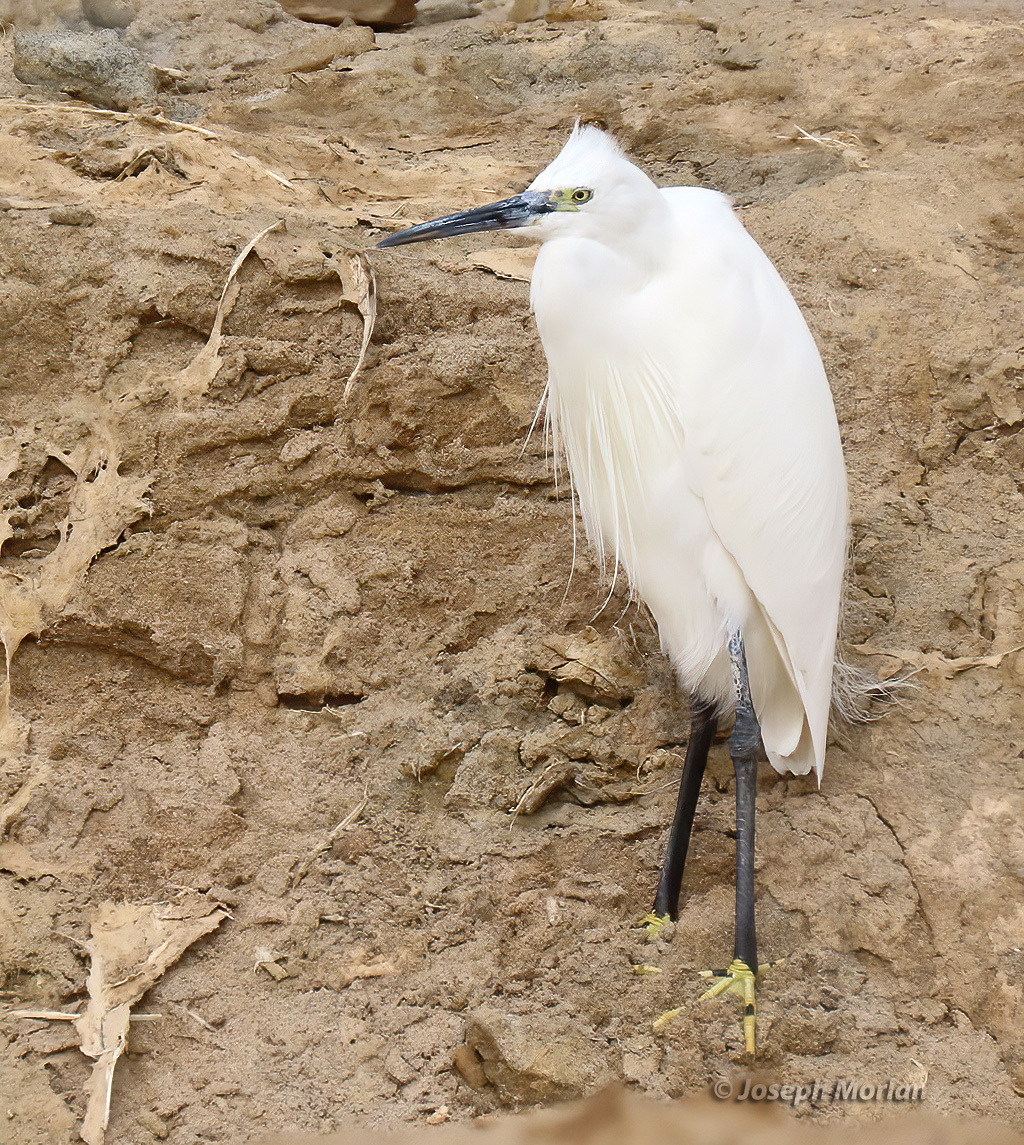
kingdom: Animalia
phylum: Chordata
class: Aves
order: Pelecaniformes
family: Ardeidae
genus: Egretta
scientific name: Egretta garzetta
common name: Little egret
